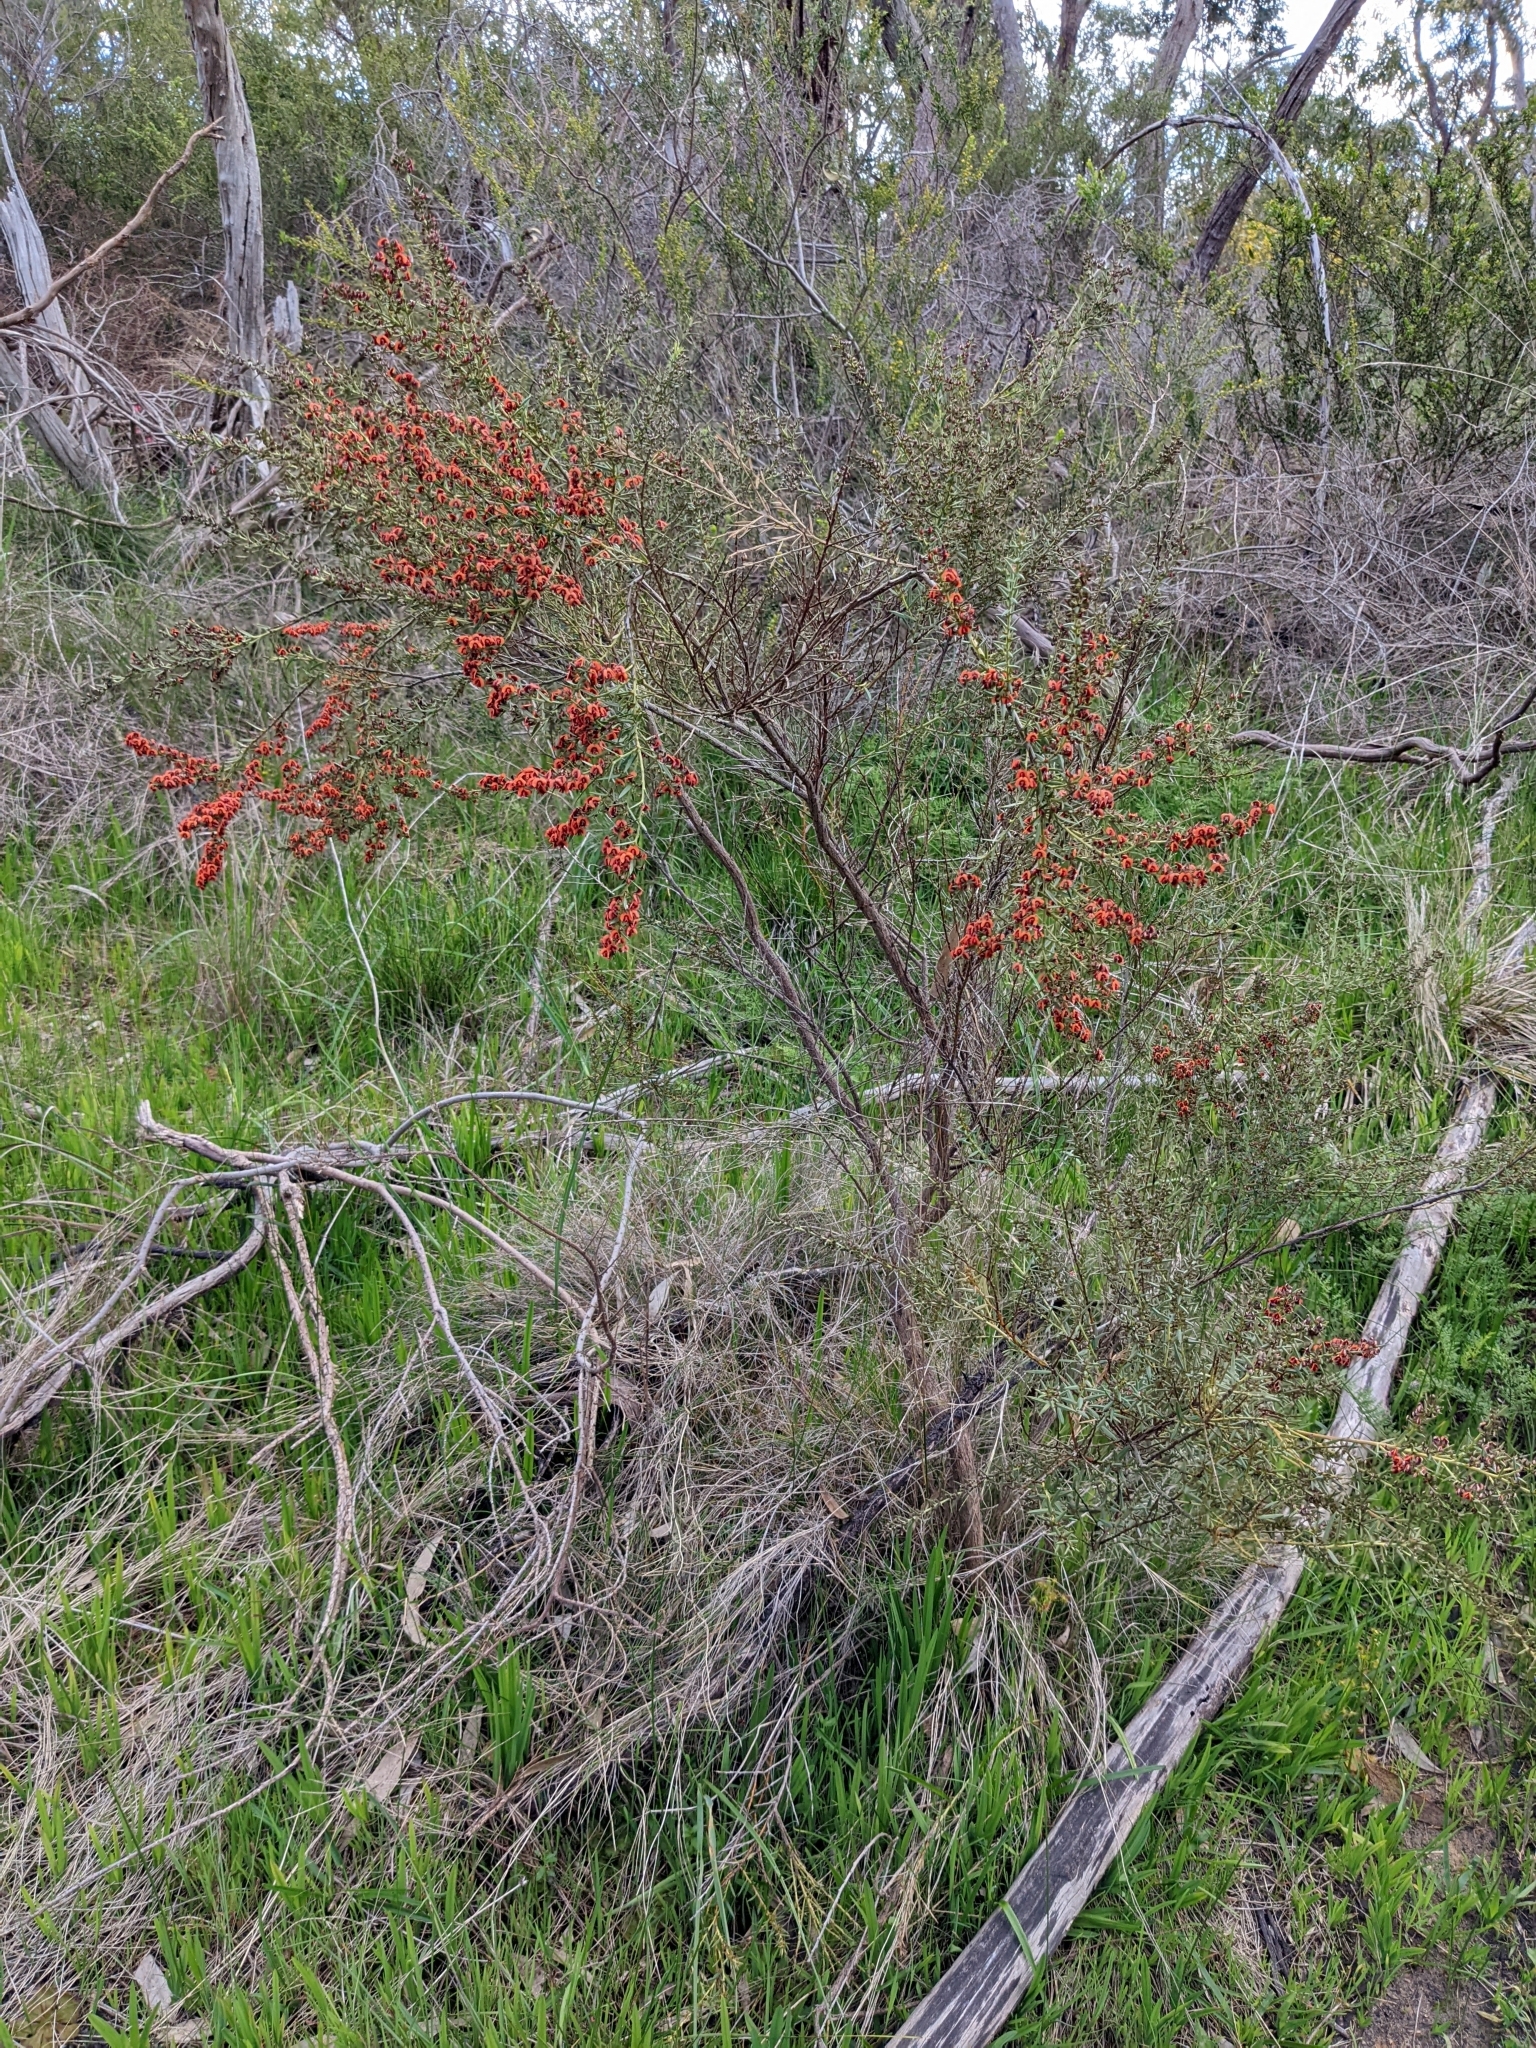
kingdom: Plantae
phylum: Tracheophyta
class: Magnoliopsida
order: Fabales
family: Fabaceae
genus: Daviesia
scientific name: Daviesia ulicifolia
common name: Gorse bitter-pea
